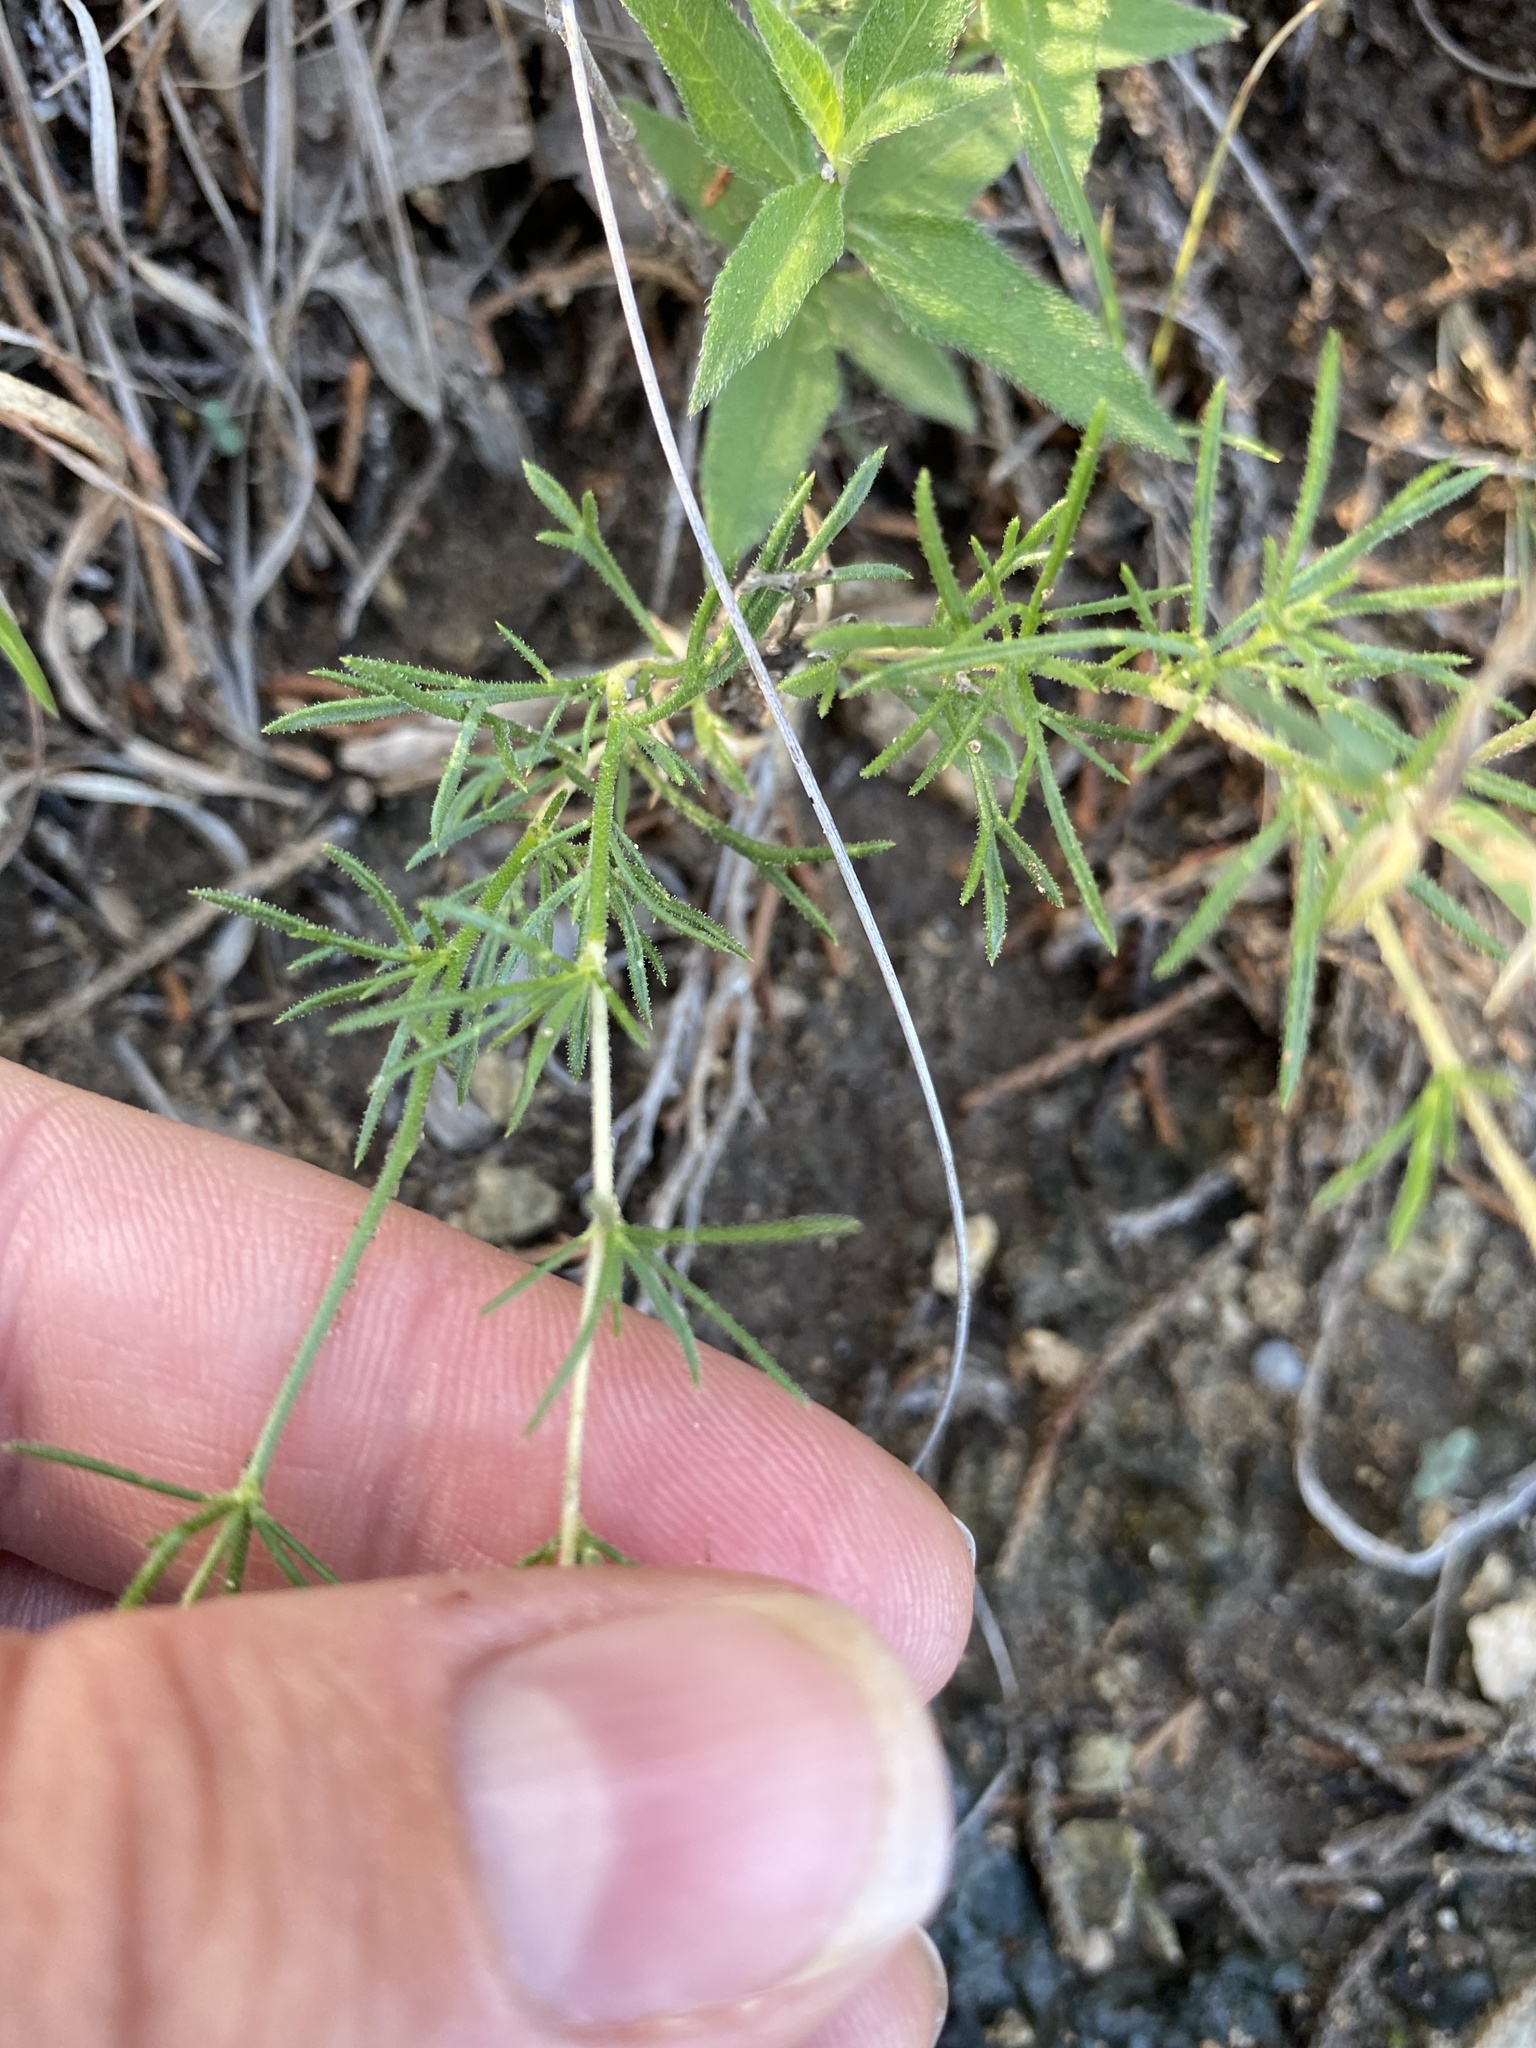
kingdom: Plantae
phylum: Tracheophyta
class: Magnoliopsida
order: Ericales
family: Polemoniaceae
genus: Giliastrum
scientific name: Giliastrum rigidulum
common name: Bluebowls
